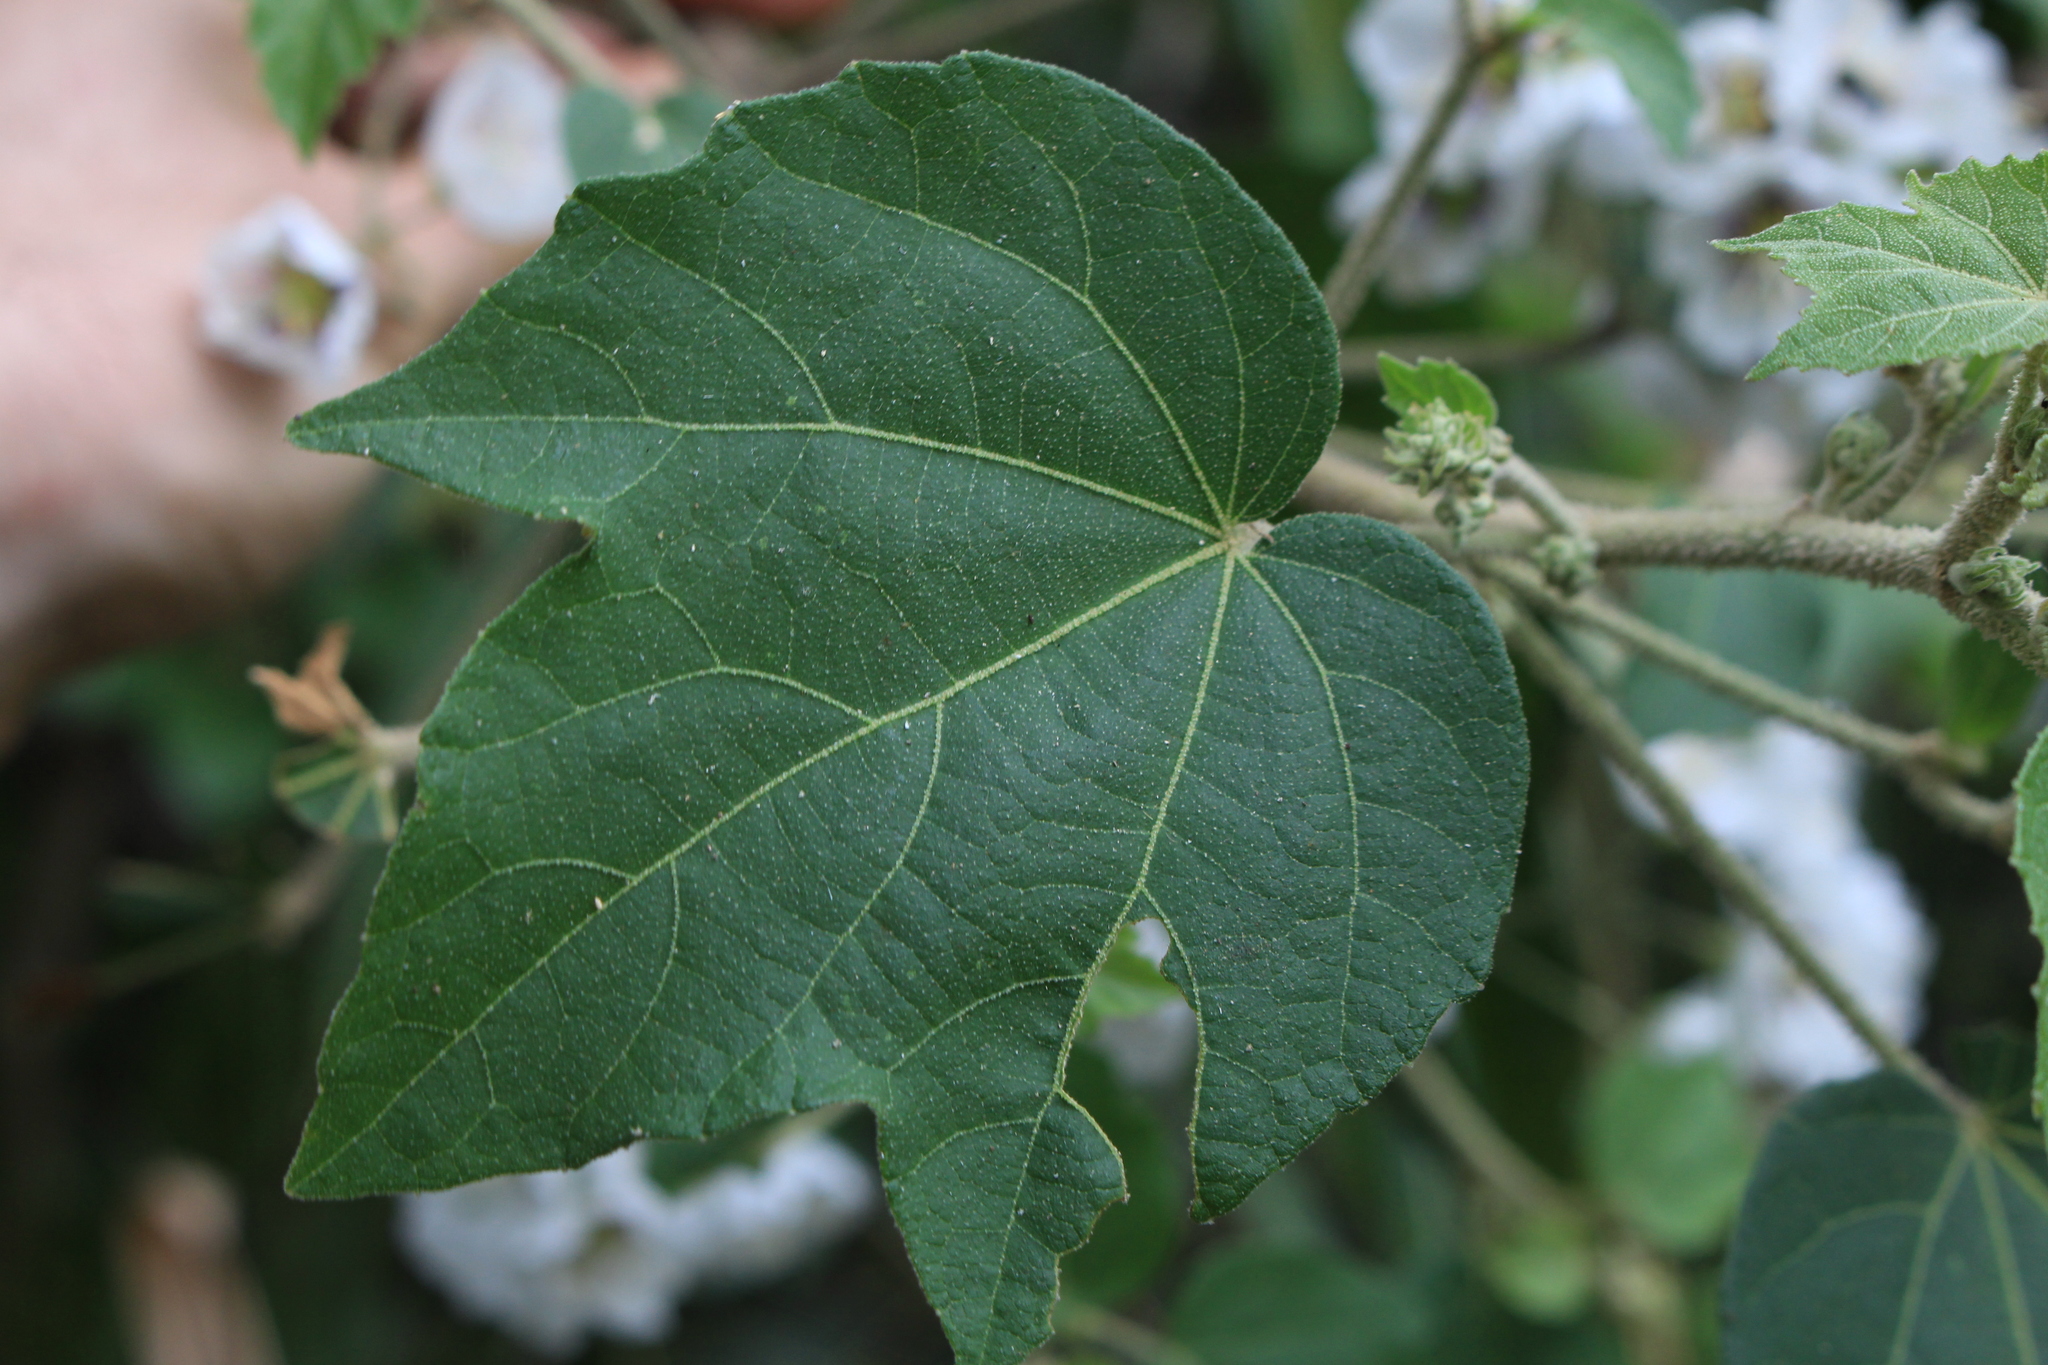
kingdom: Plantae
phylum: Tracheophyta
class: Magnoliopsida
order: Malvales
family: Malvaceae
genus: Robinsonella
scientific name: Robinsonella lindeniana
